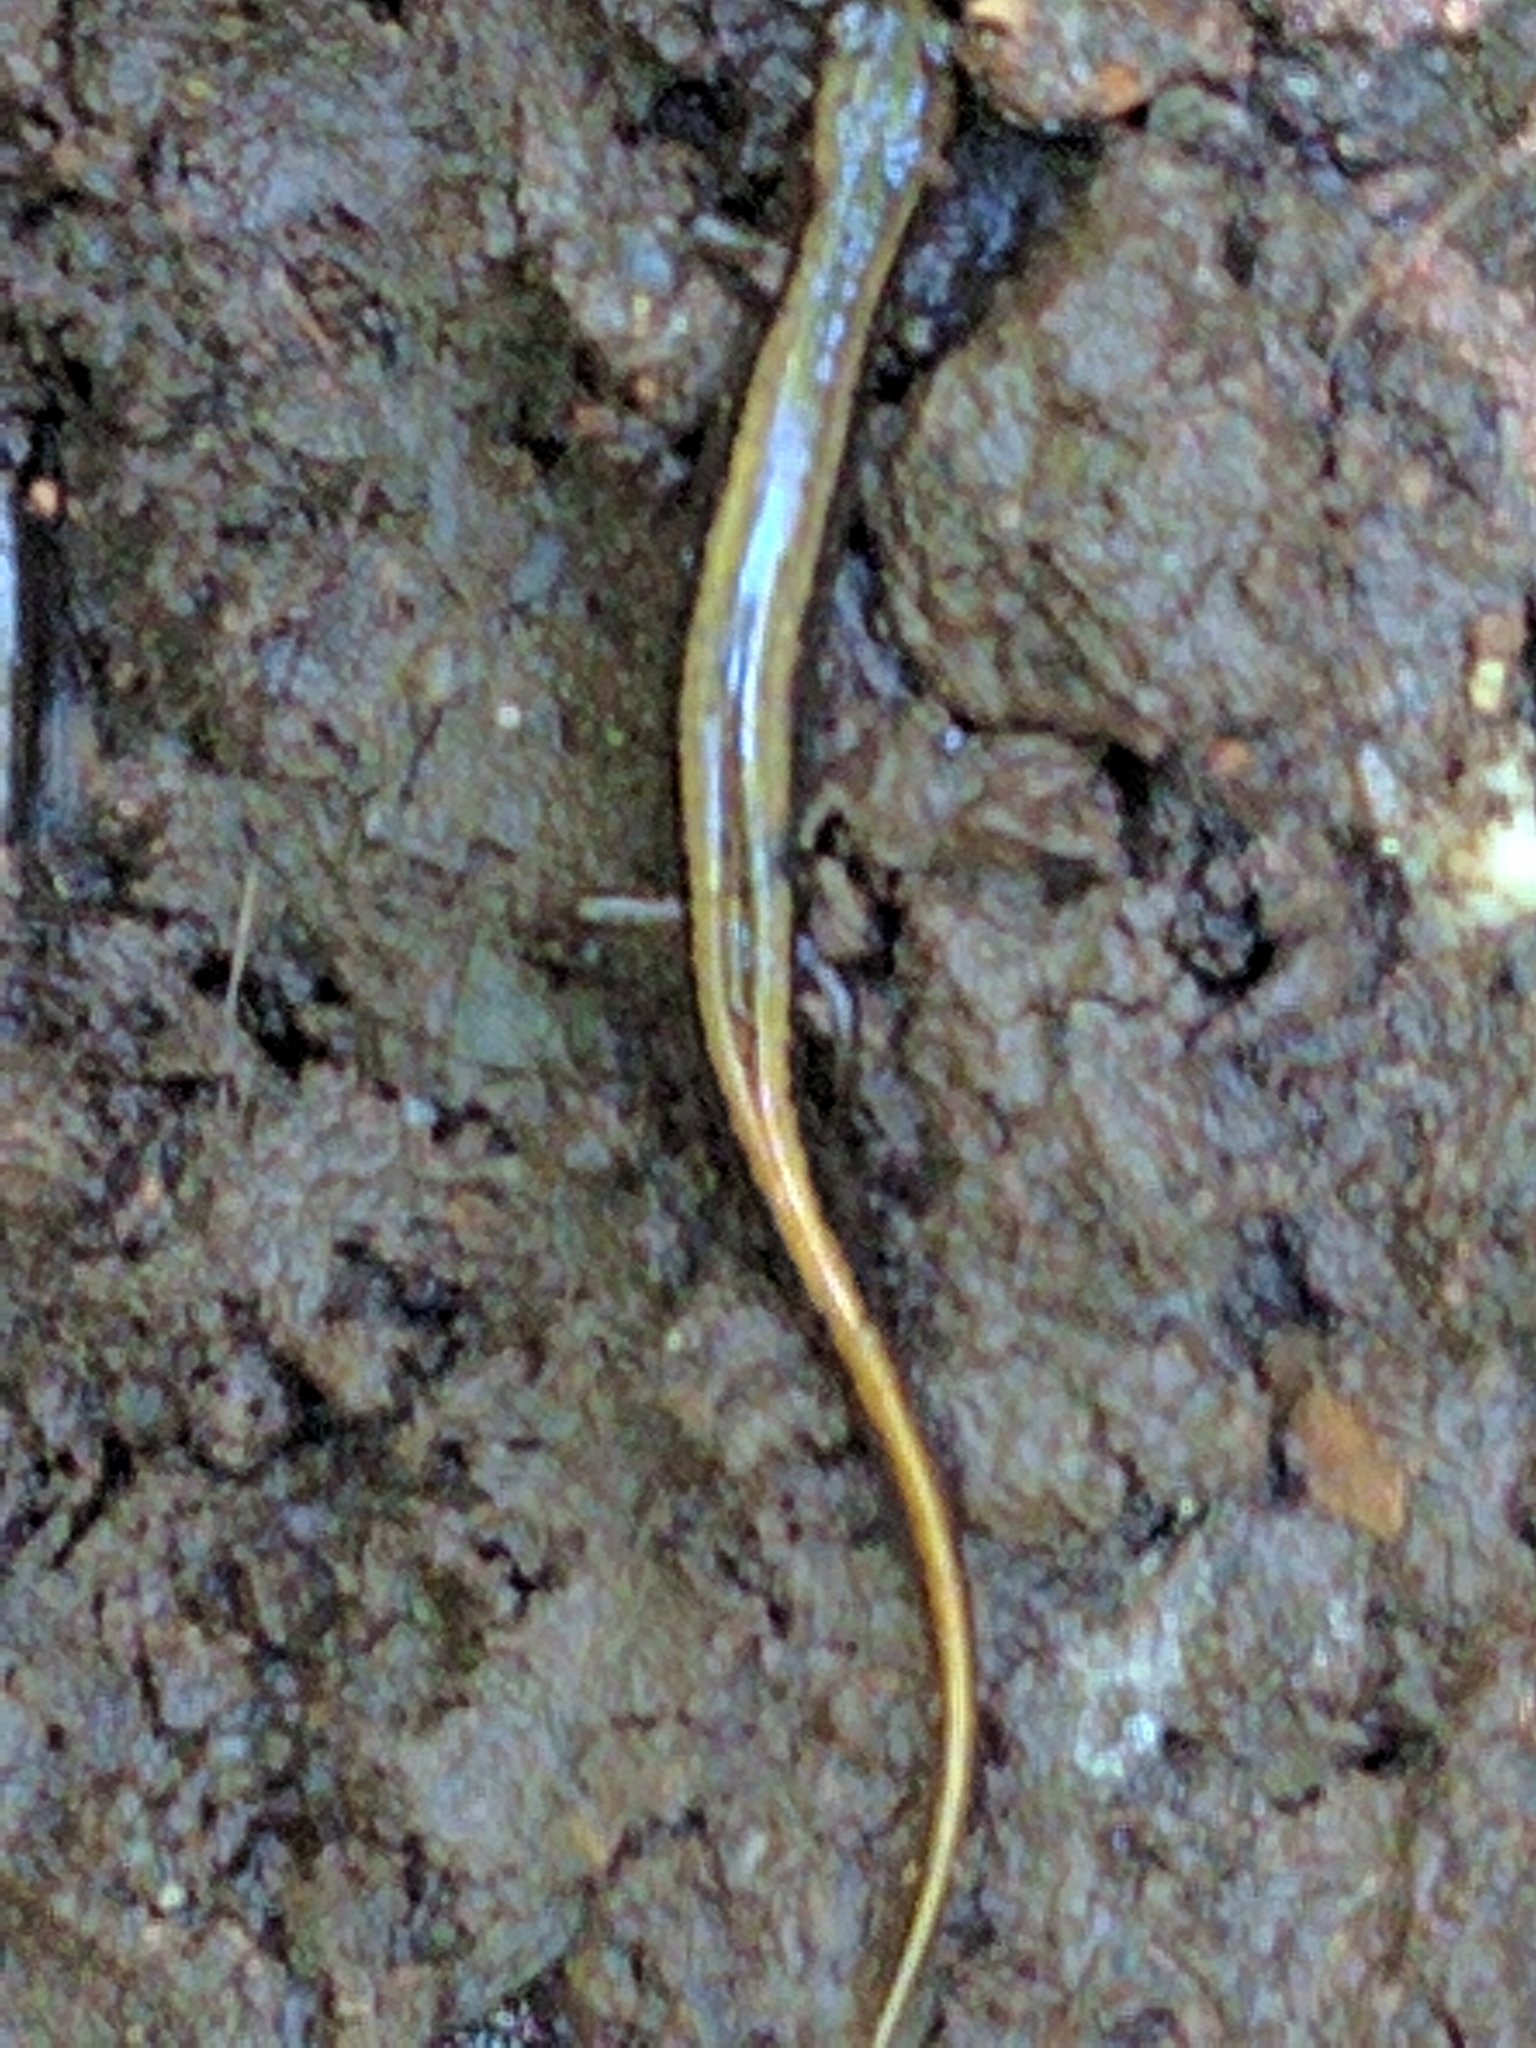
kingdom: Animalia
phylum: Chordata
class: Amphibia
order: Caudata
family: Plethodontidae
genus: Eurycea
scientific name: Eurycea bislineata
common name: Northern two-lined salamander
